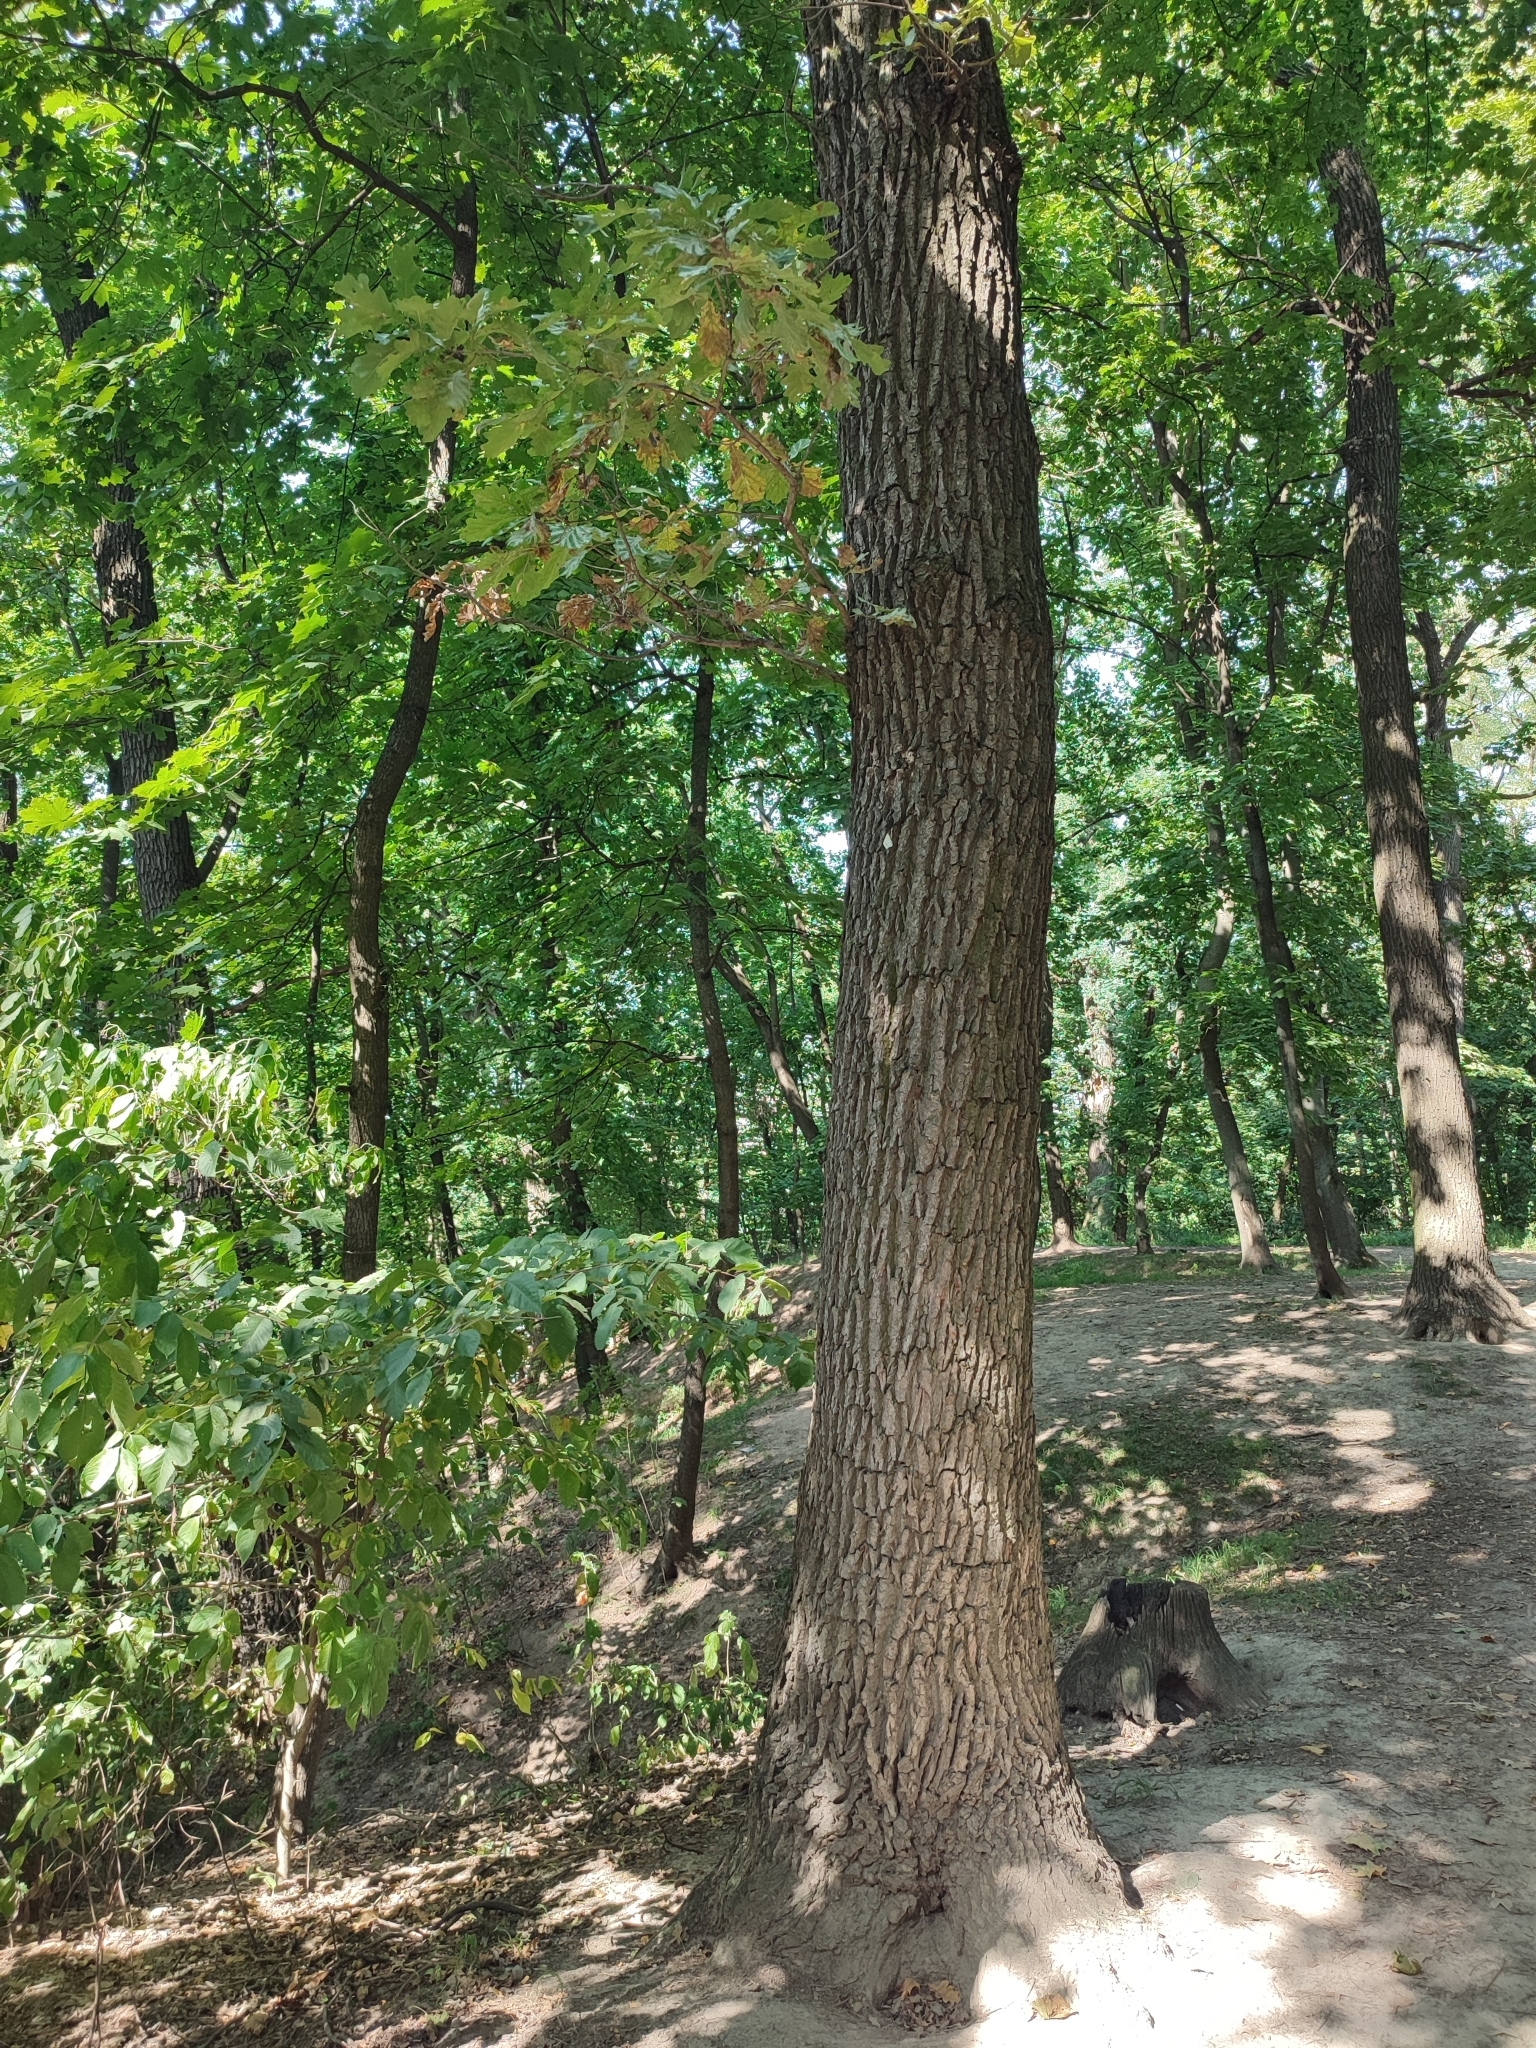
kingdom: Plantae
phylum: Tracheophyta
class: Magnoliopsida
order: Fagales
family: Fagaceae
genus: Quercus
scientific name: Quercus robur
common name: Pedunculate oak
